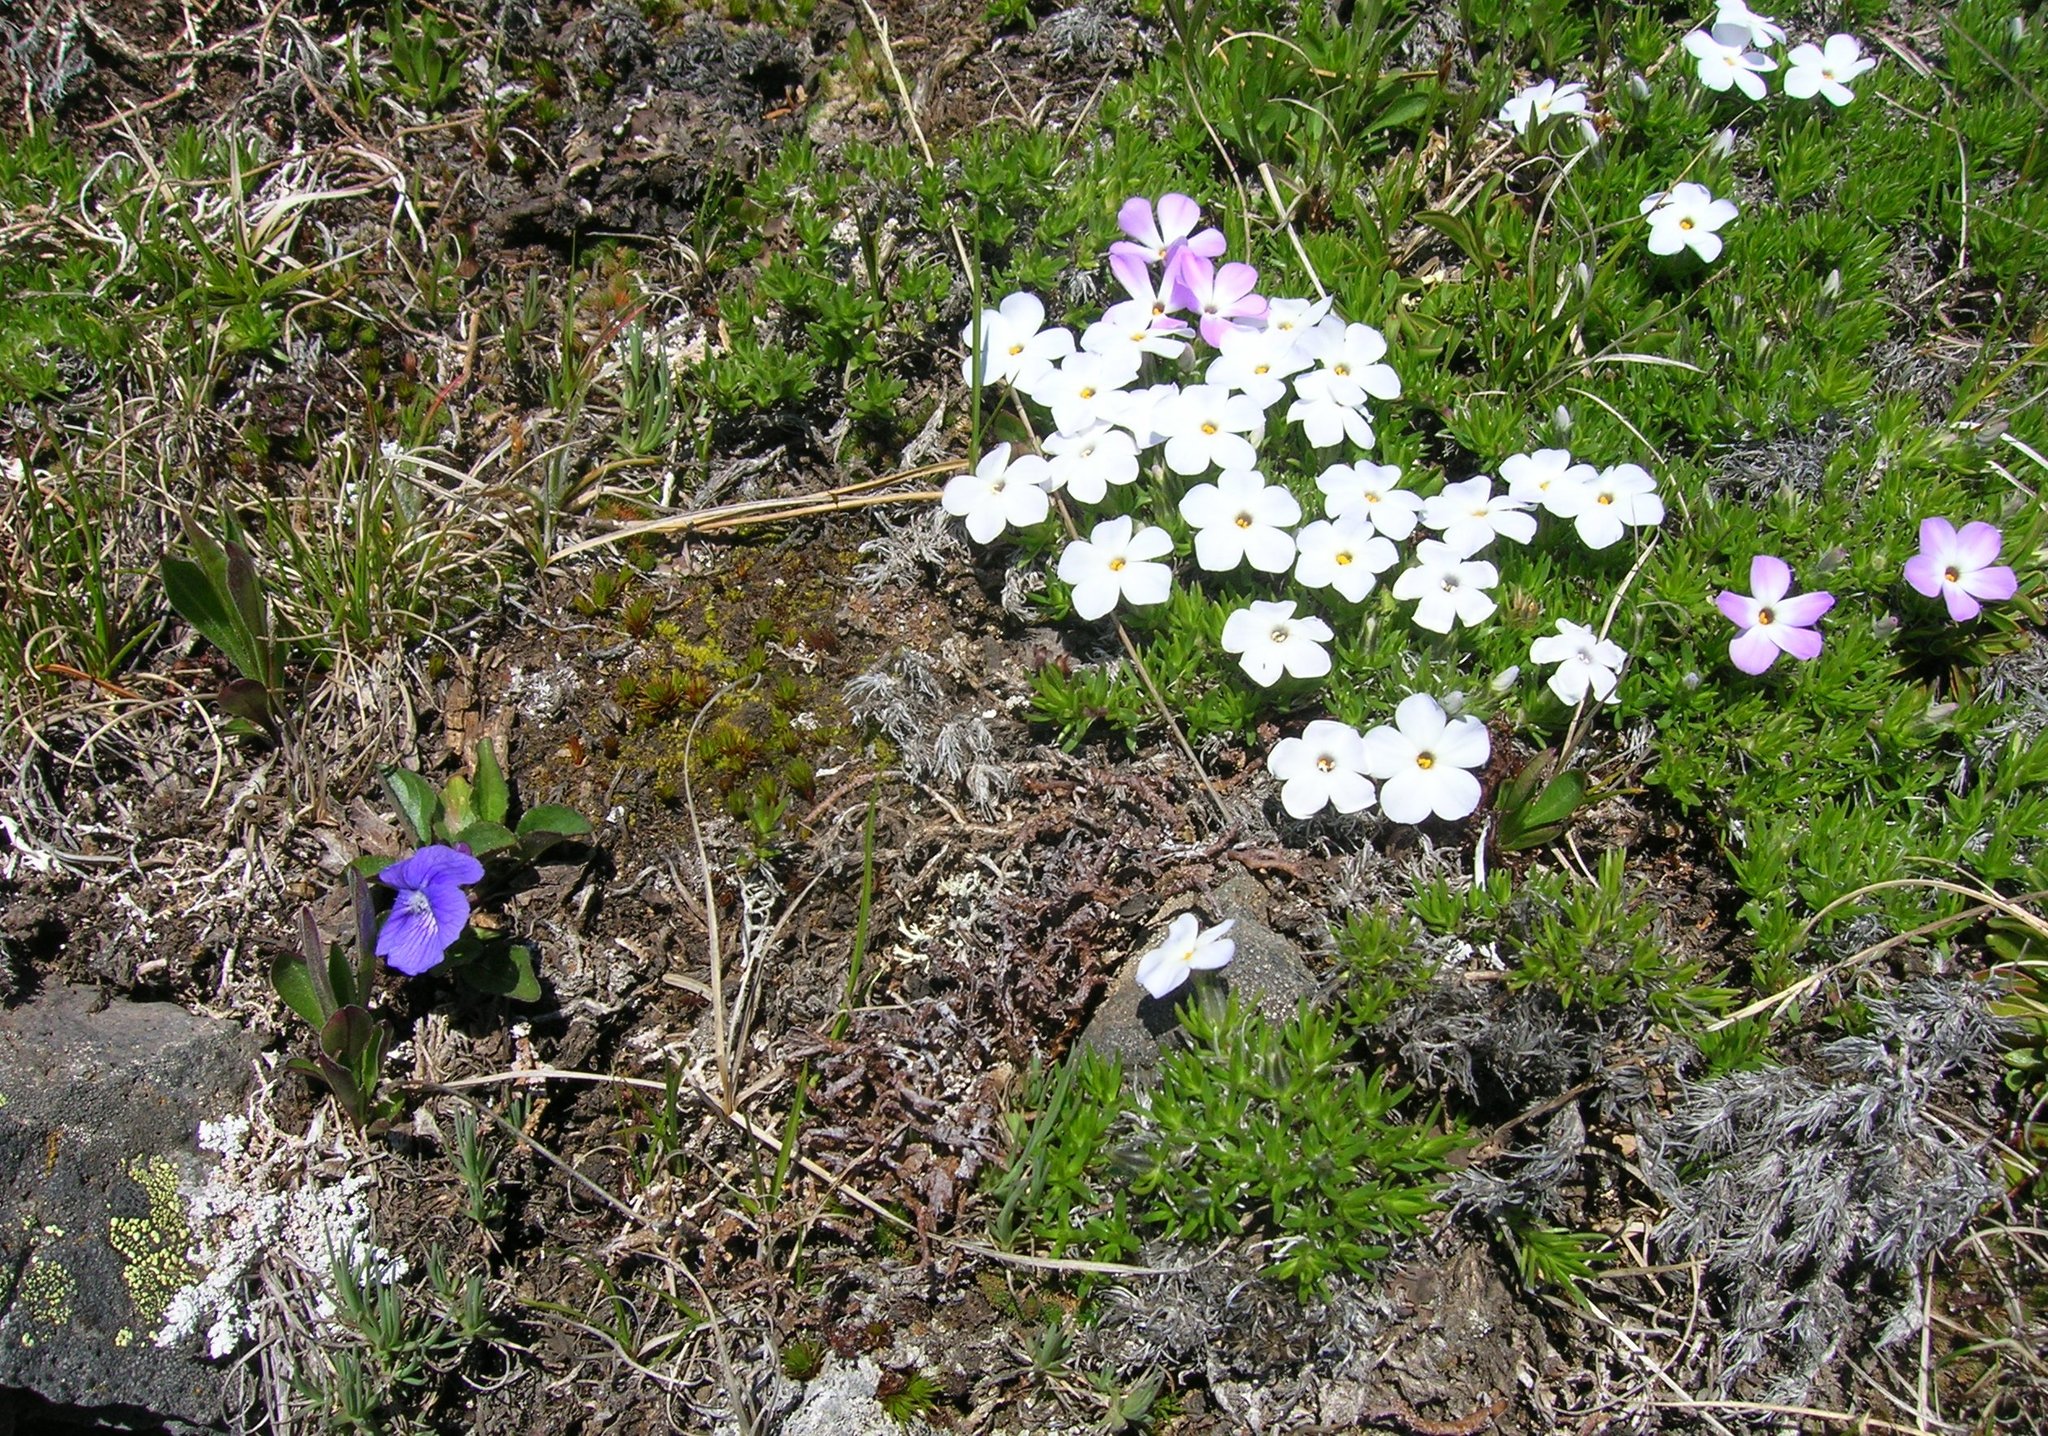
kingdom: Plantae
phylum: Tracheophyta
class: Magnoliopsida
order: Ericales
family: Polemoniaceae
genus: Phlox
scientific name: Phlox diffusa
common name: Mat phlox
